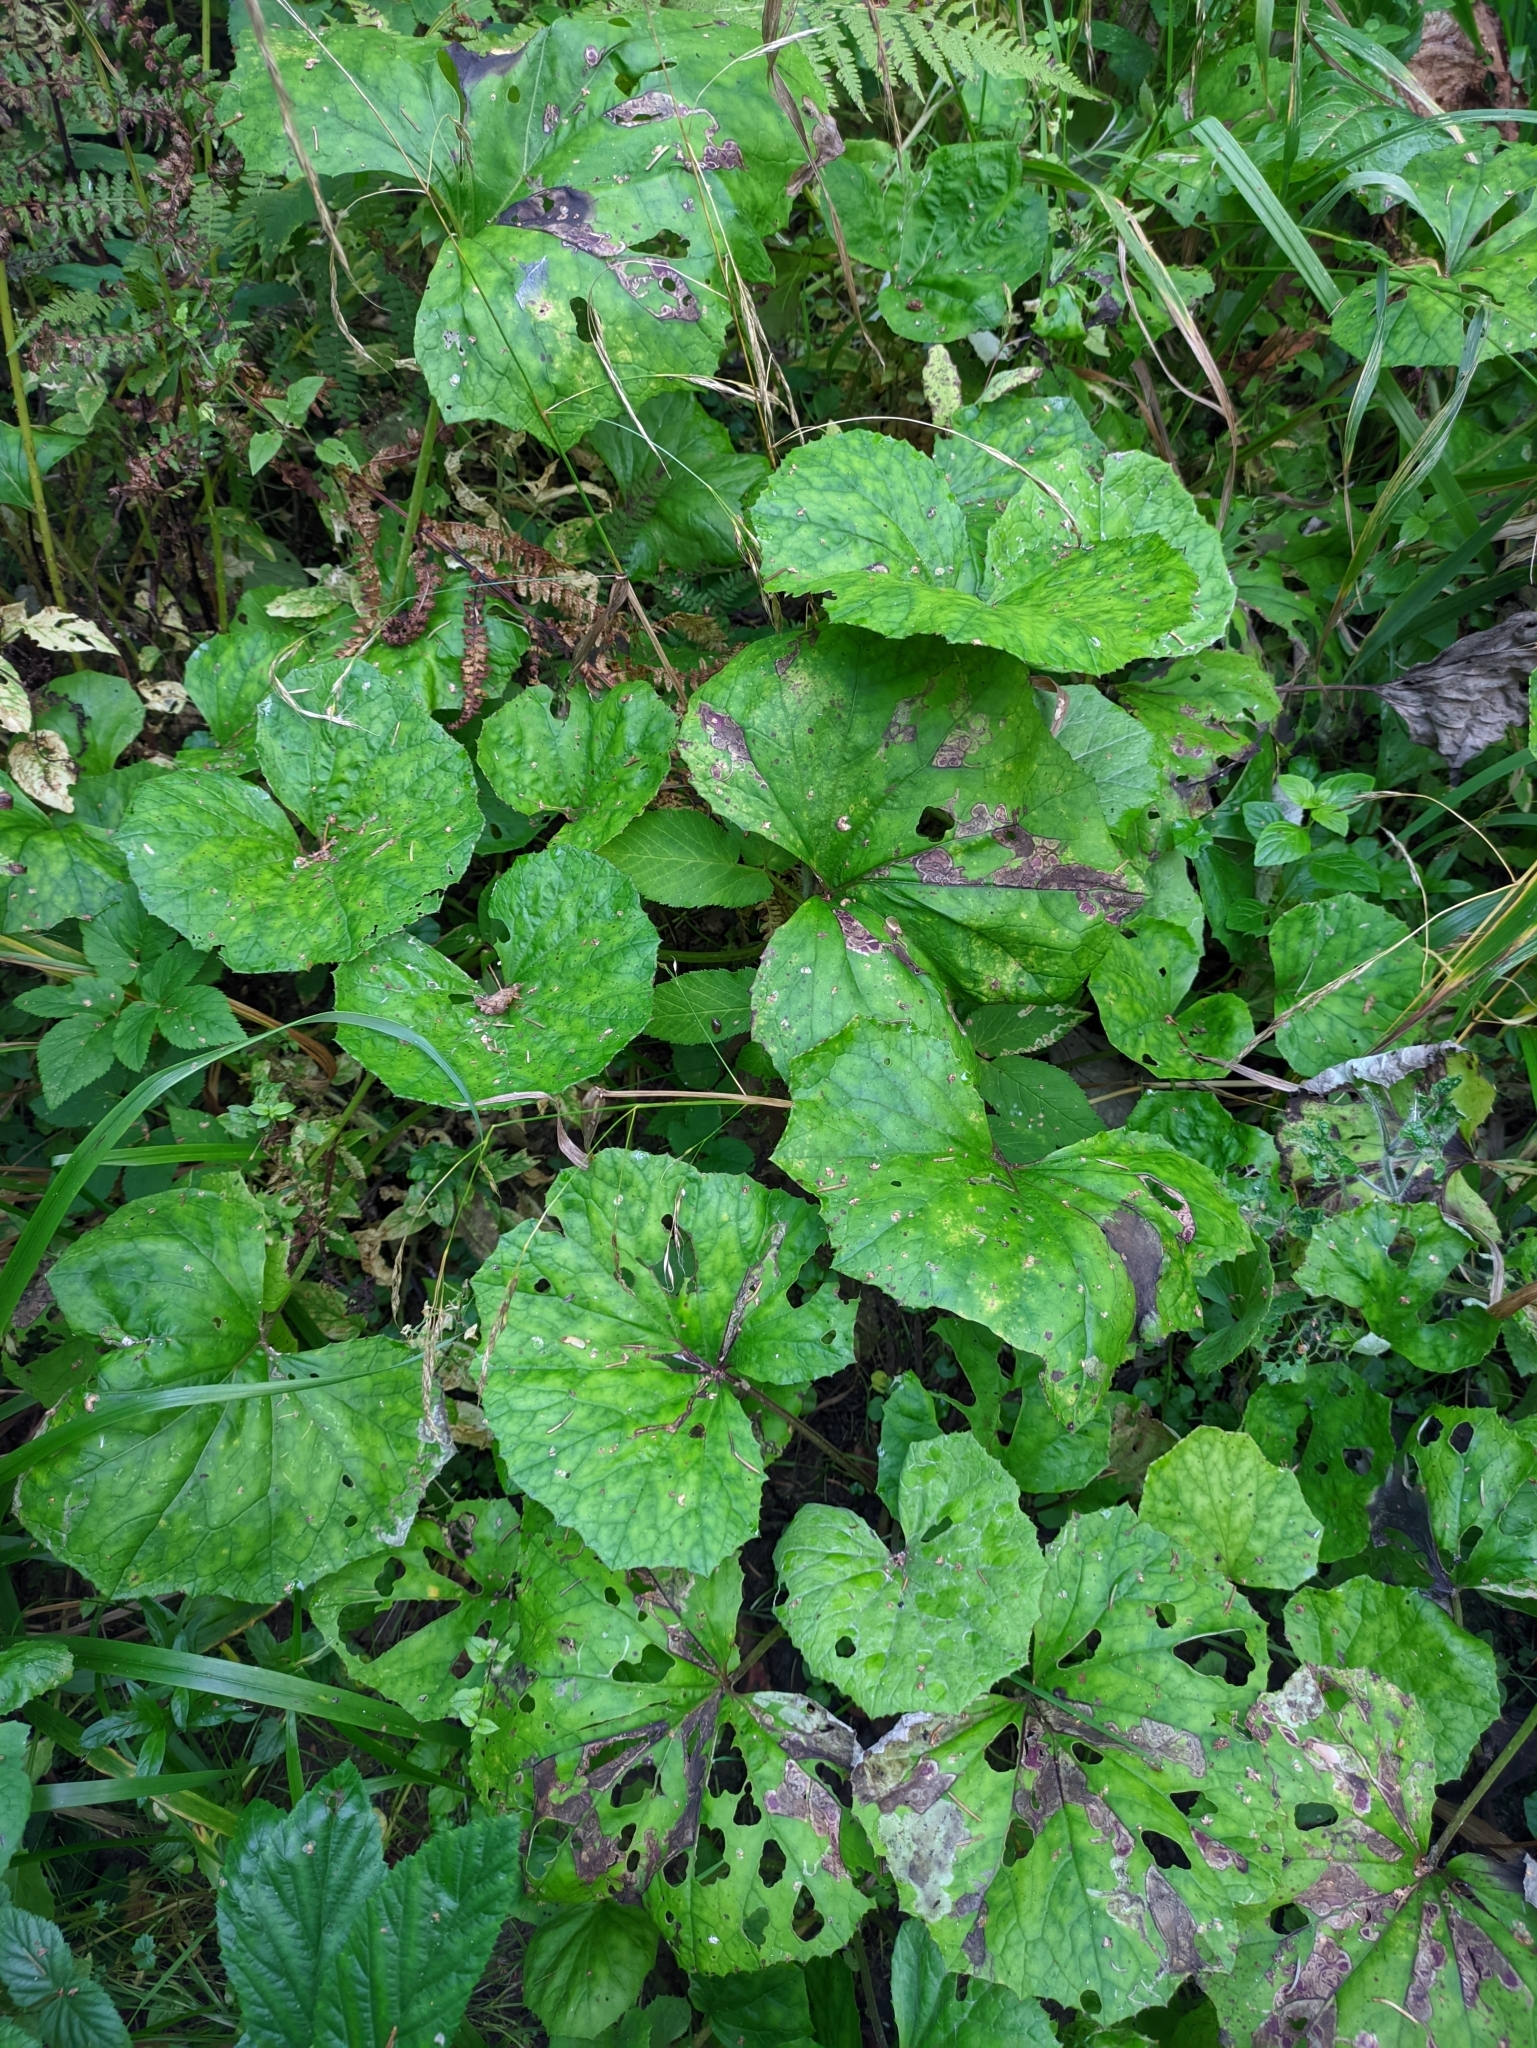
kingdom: Plantae
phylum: Tracheophyta
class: Magnoliopsida
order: Asterales
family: Asteraceae
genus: Tussilago
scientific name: Tussilago farfara
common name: Coltsfoot
